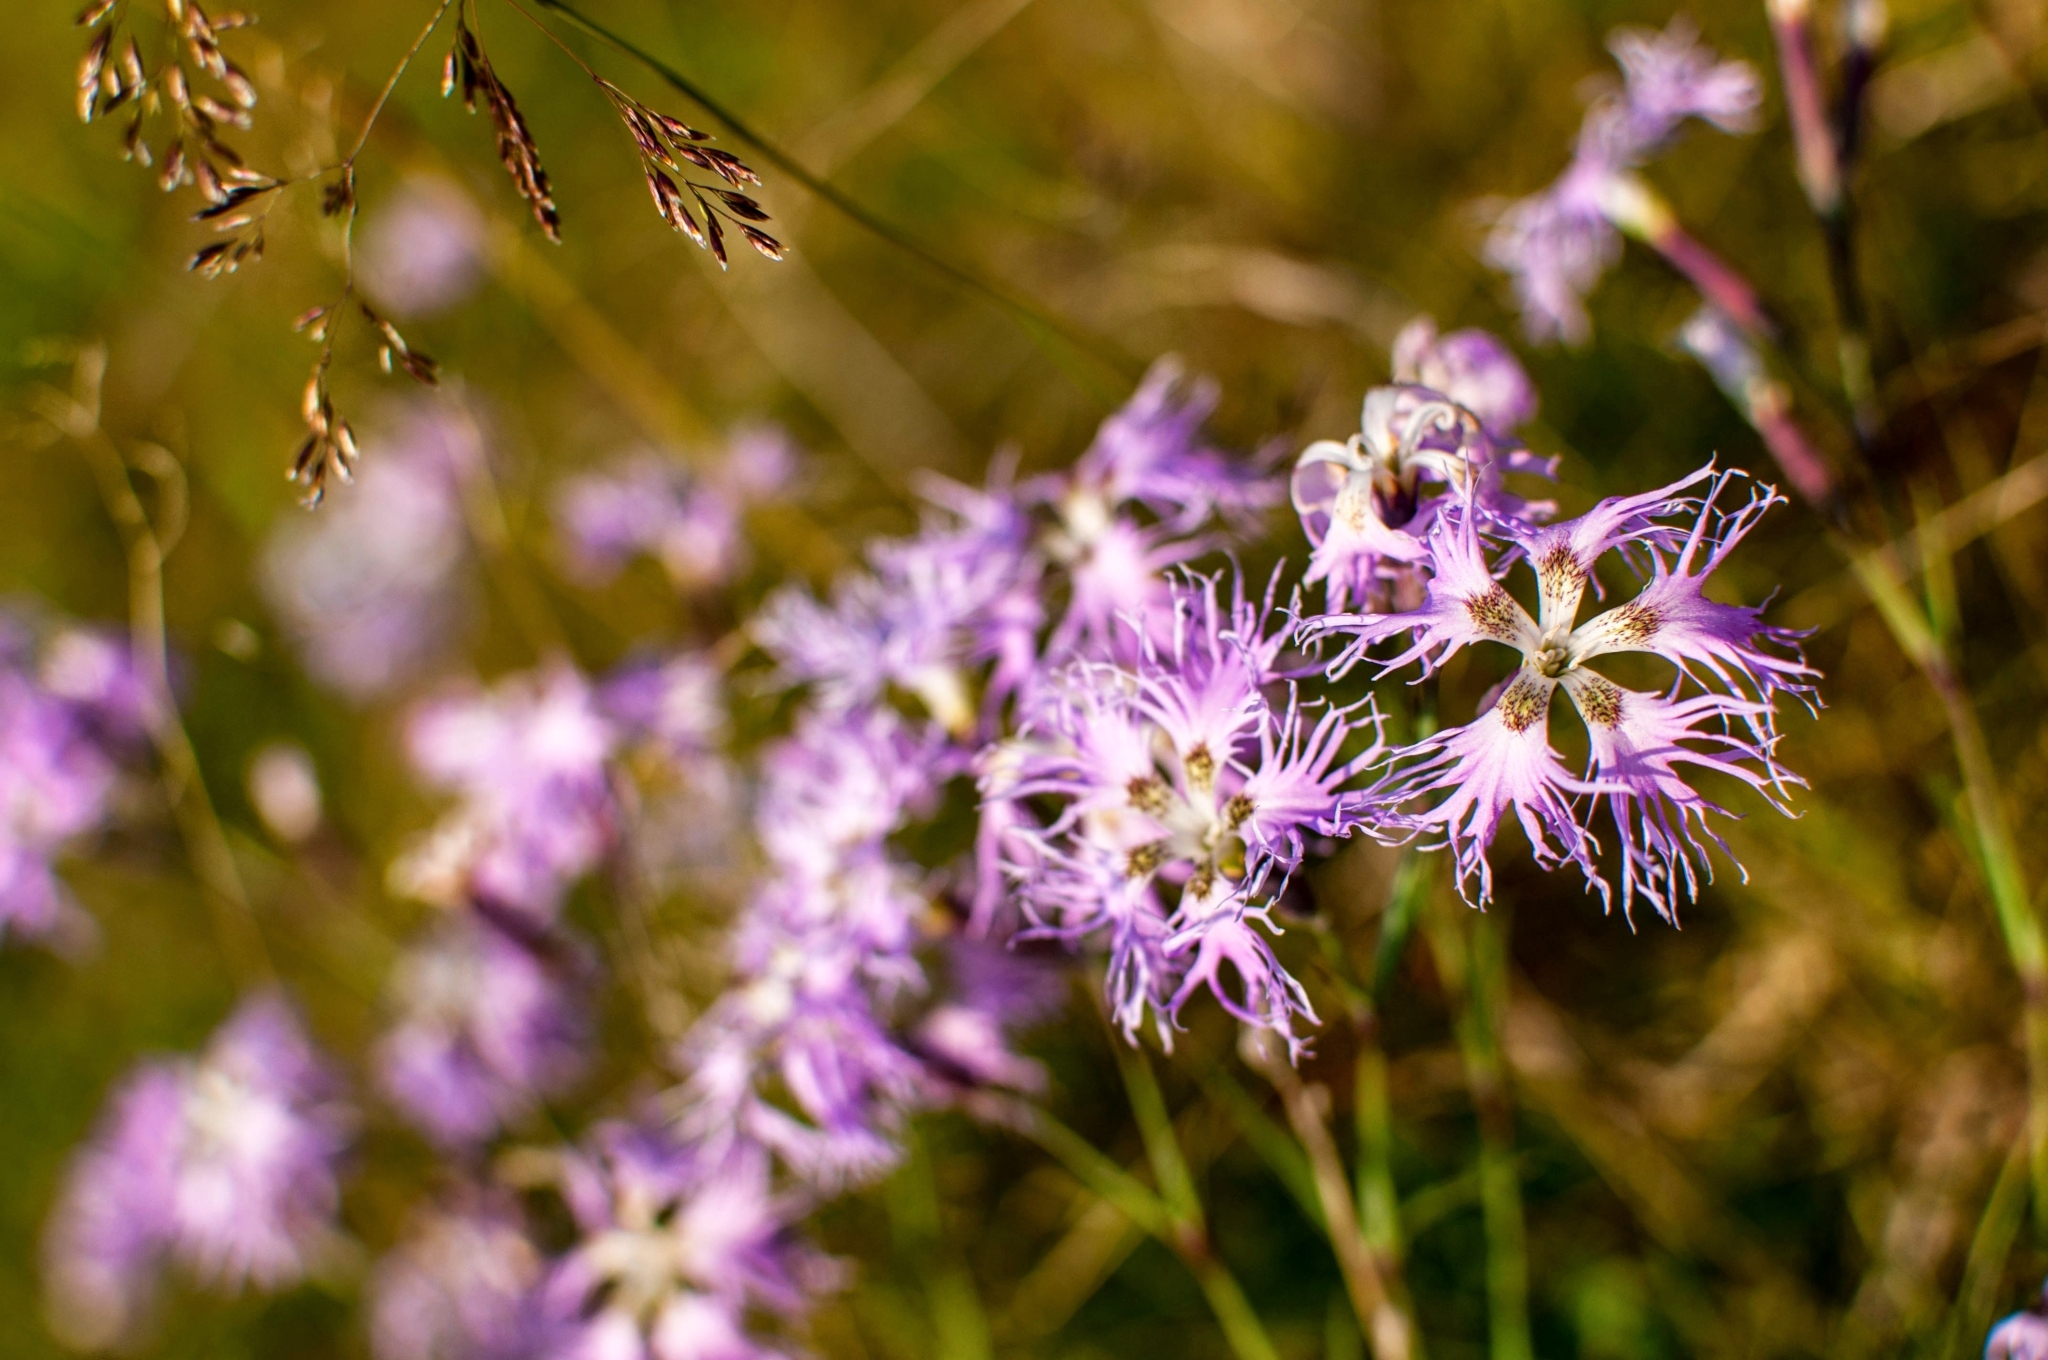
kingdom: Plantae
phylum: Tracheophyta
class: Magnoliopsida
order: Caryophyllales
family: Caryophyllaceae
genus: Dianthus
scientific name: Dianthus superbus
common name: Fringed pink
